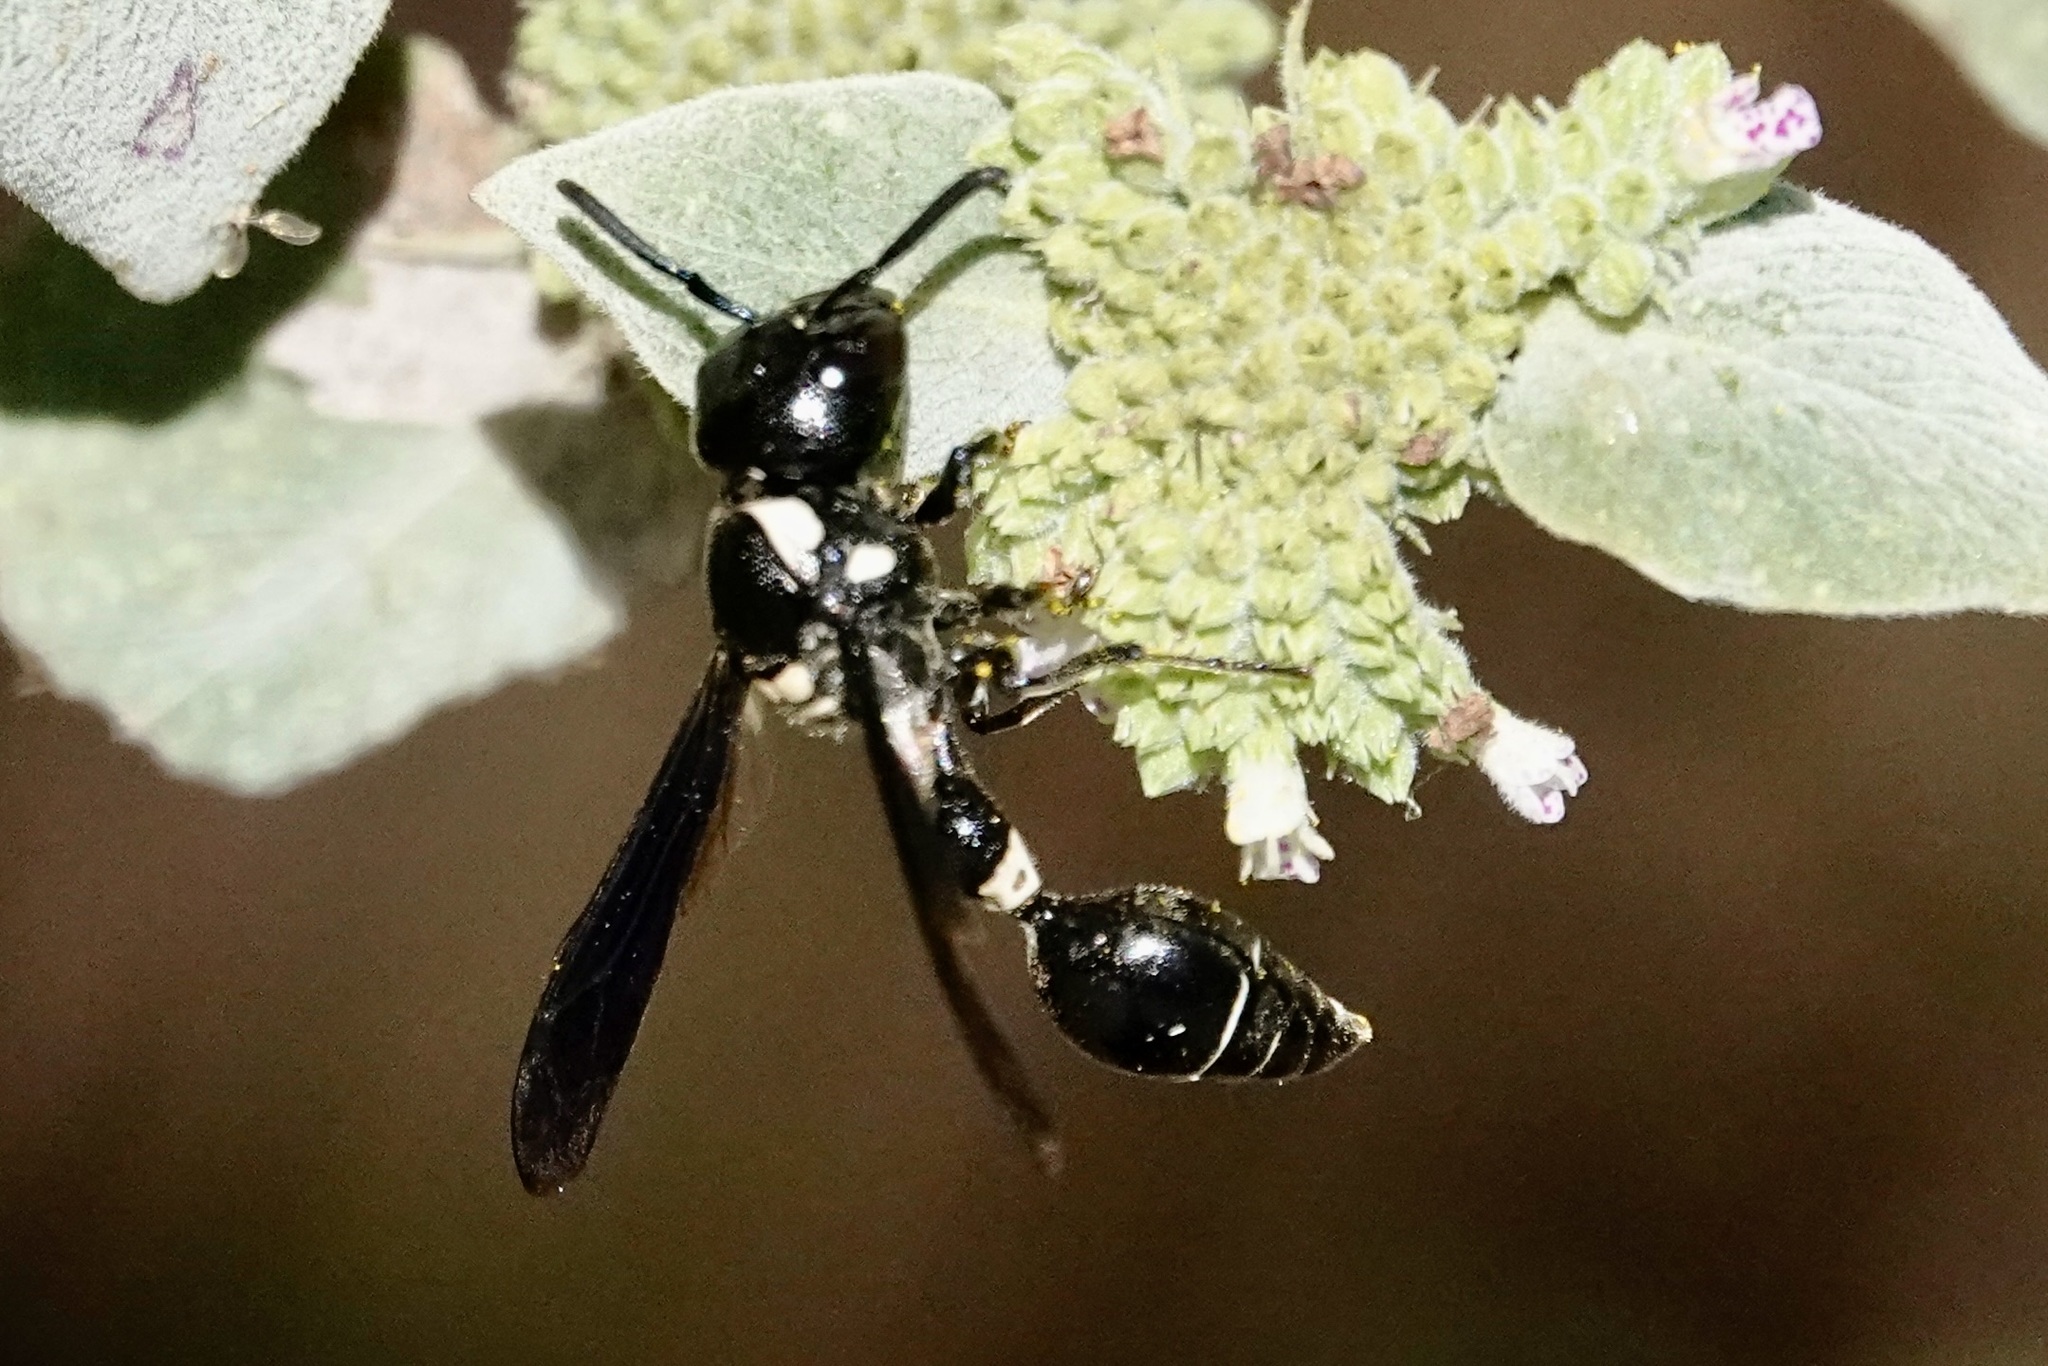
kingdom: Animalia
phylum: Arthropoda
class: Insecta
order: Hymenoptera
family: Eumenidae
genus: Zethus
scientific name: Zethus spinipes
